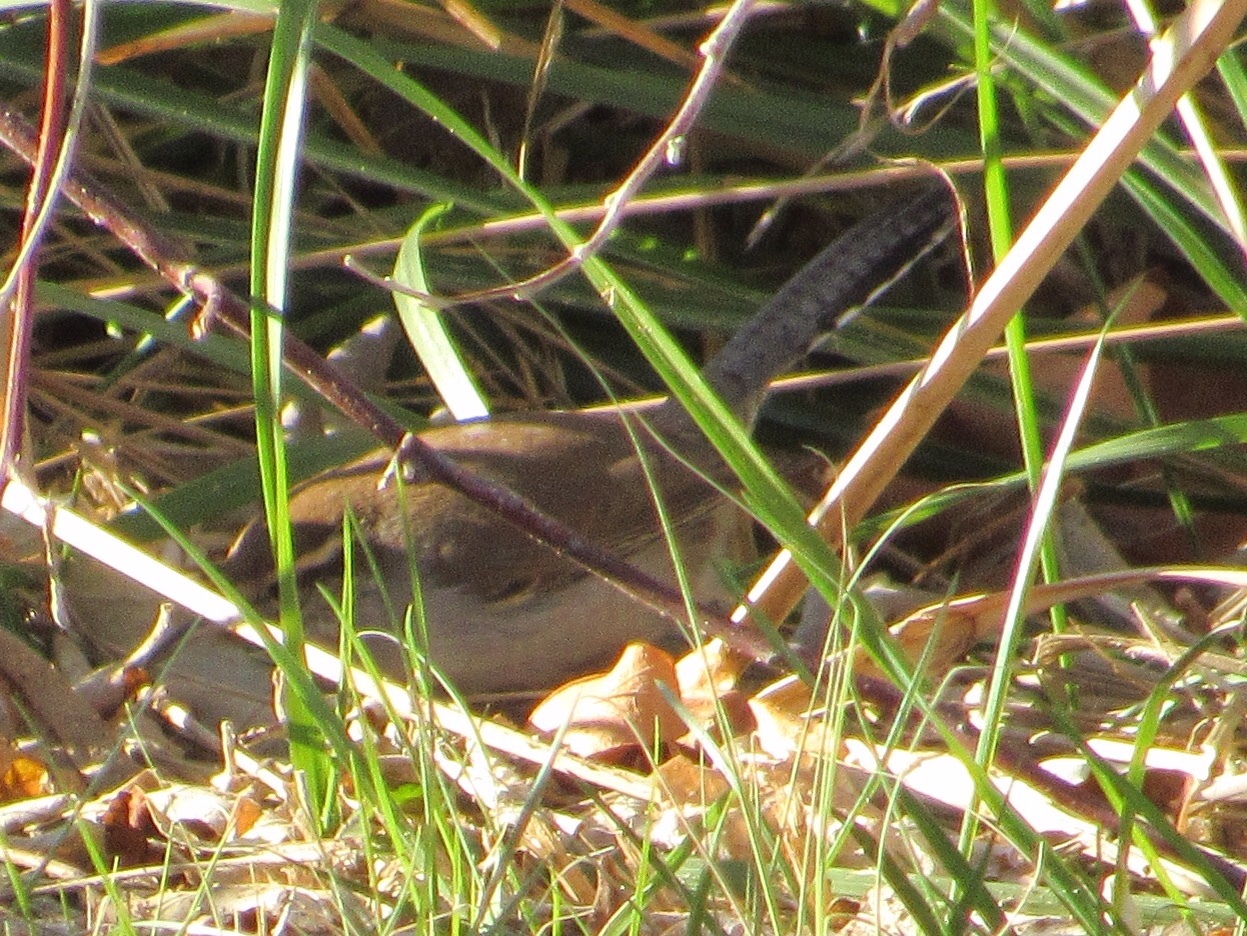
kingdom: Animalia
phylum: Chordata
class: Aves
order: Passeriformes
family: Troglodytidae
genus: Thryomanes
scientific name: Thryomanes bewickii
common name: Bewick's wren
